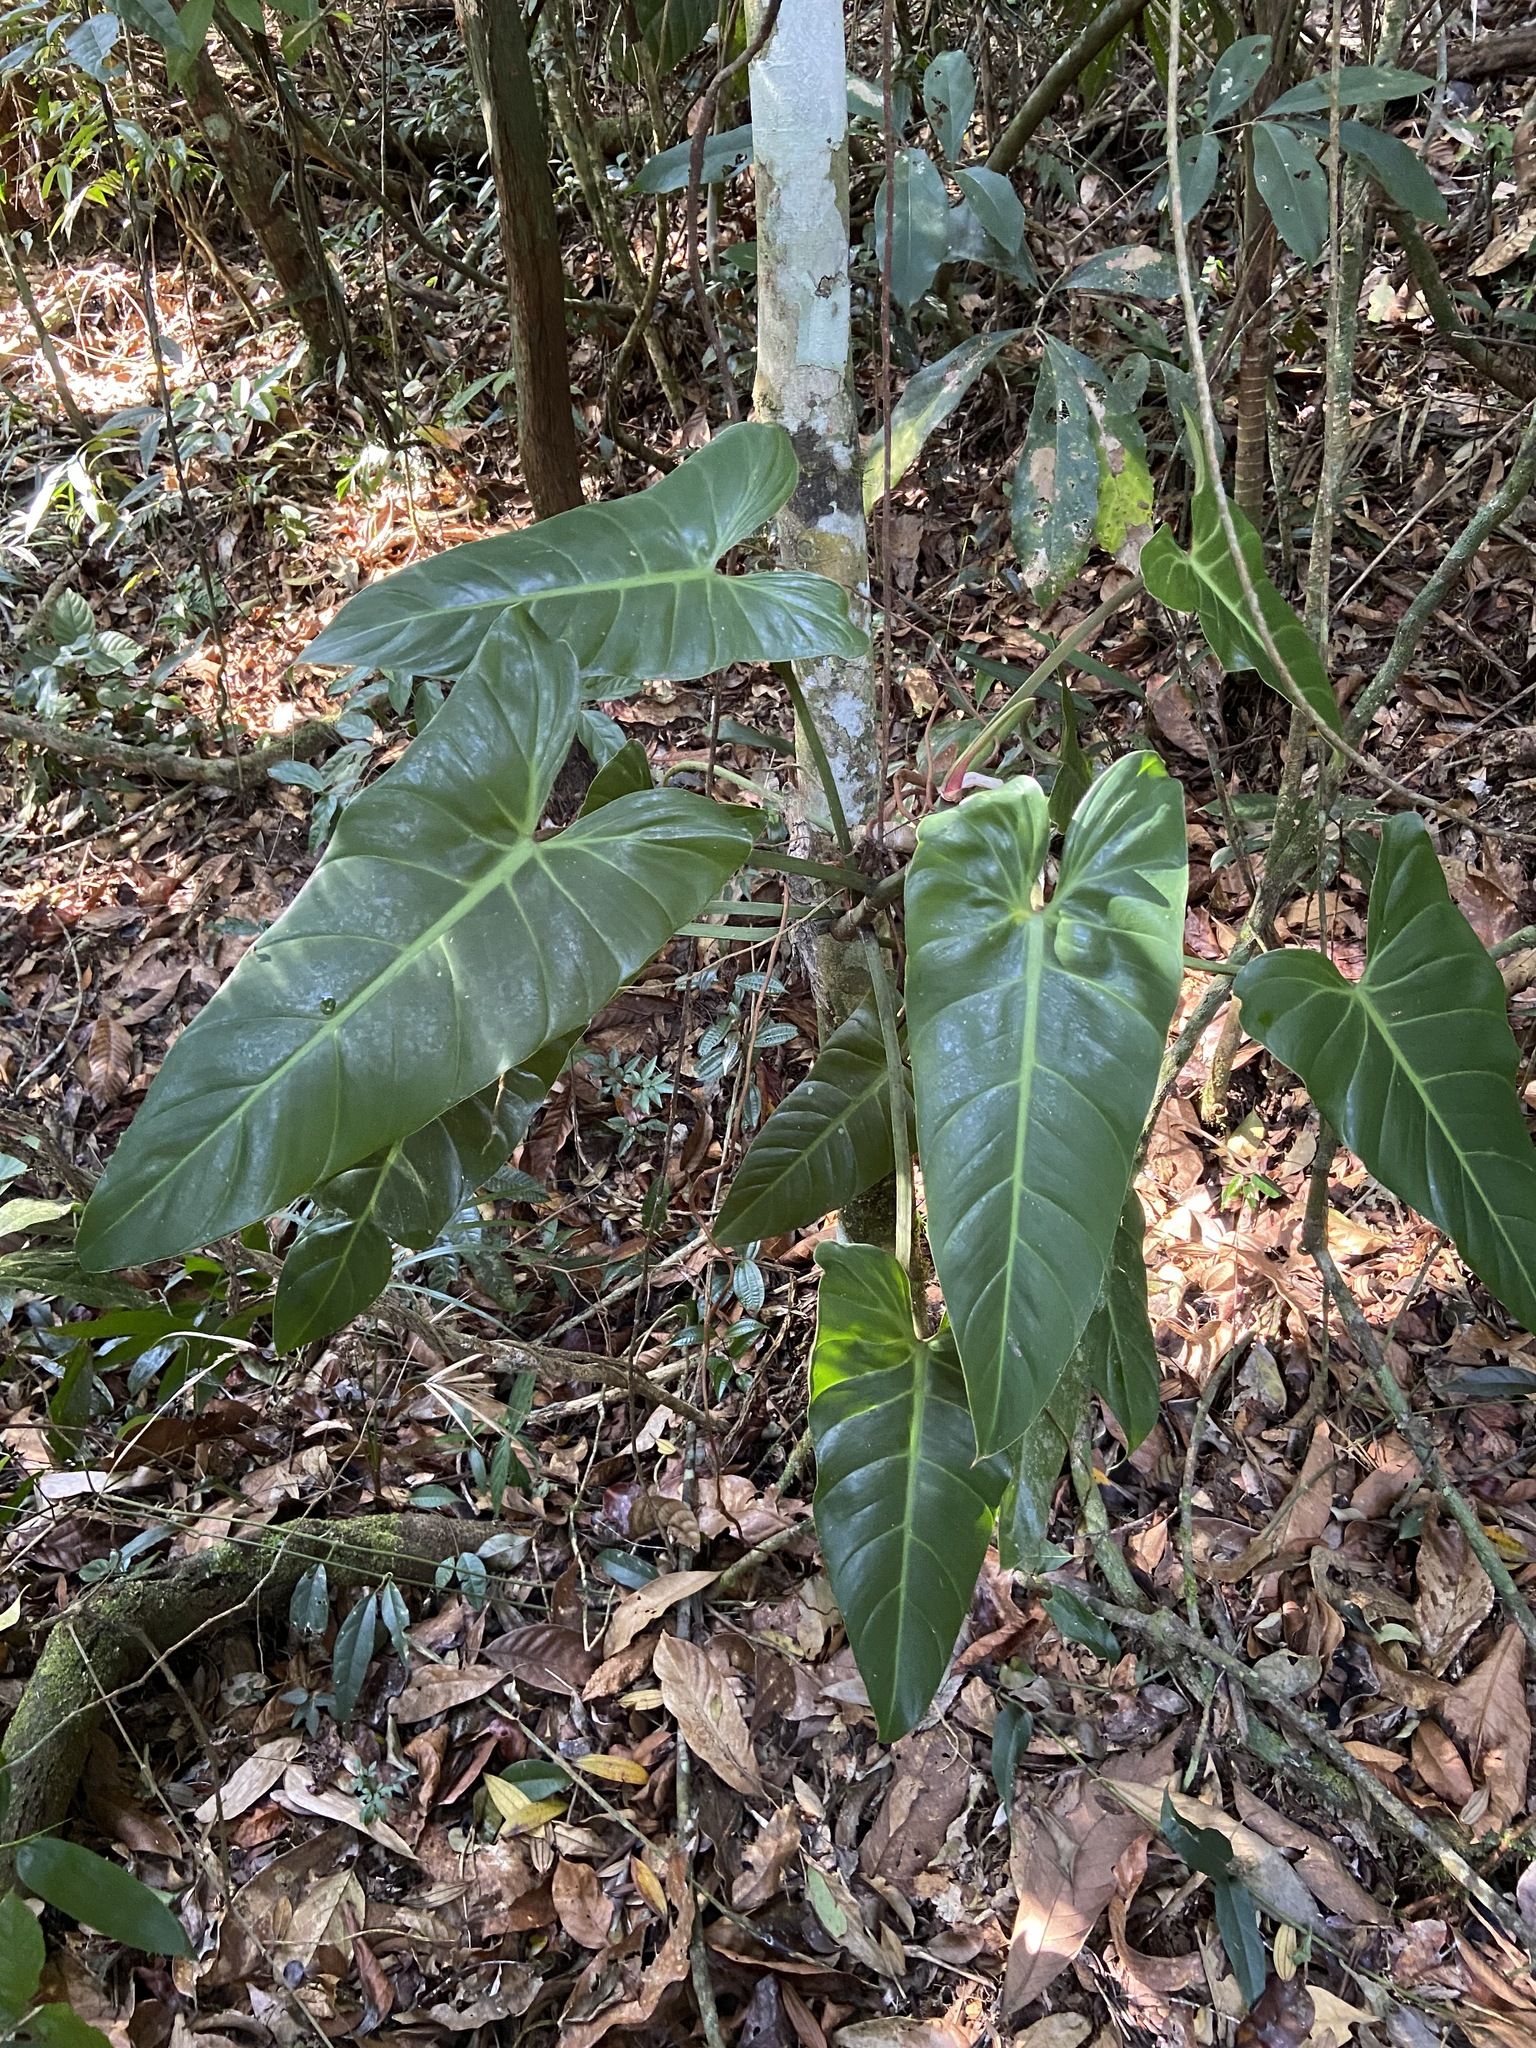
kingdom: Plantae
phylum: Tracheophyta
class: Liliopsida
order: Alismatales
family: Araceae
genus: Philodendron
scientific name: Philodendron bernardopazii
